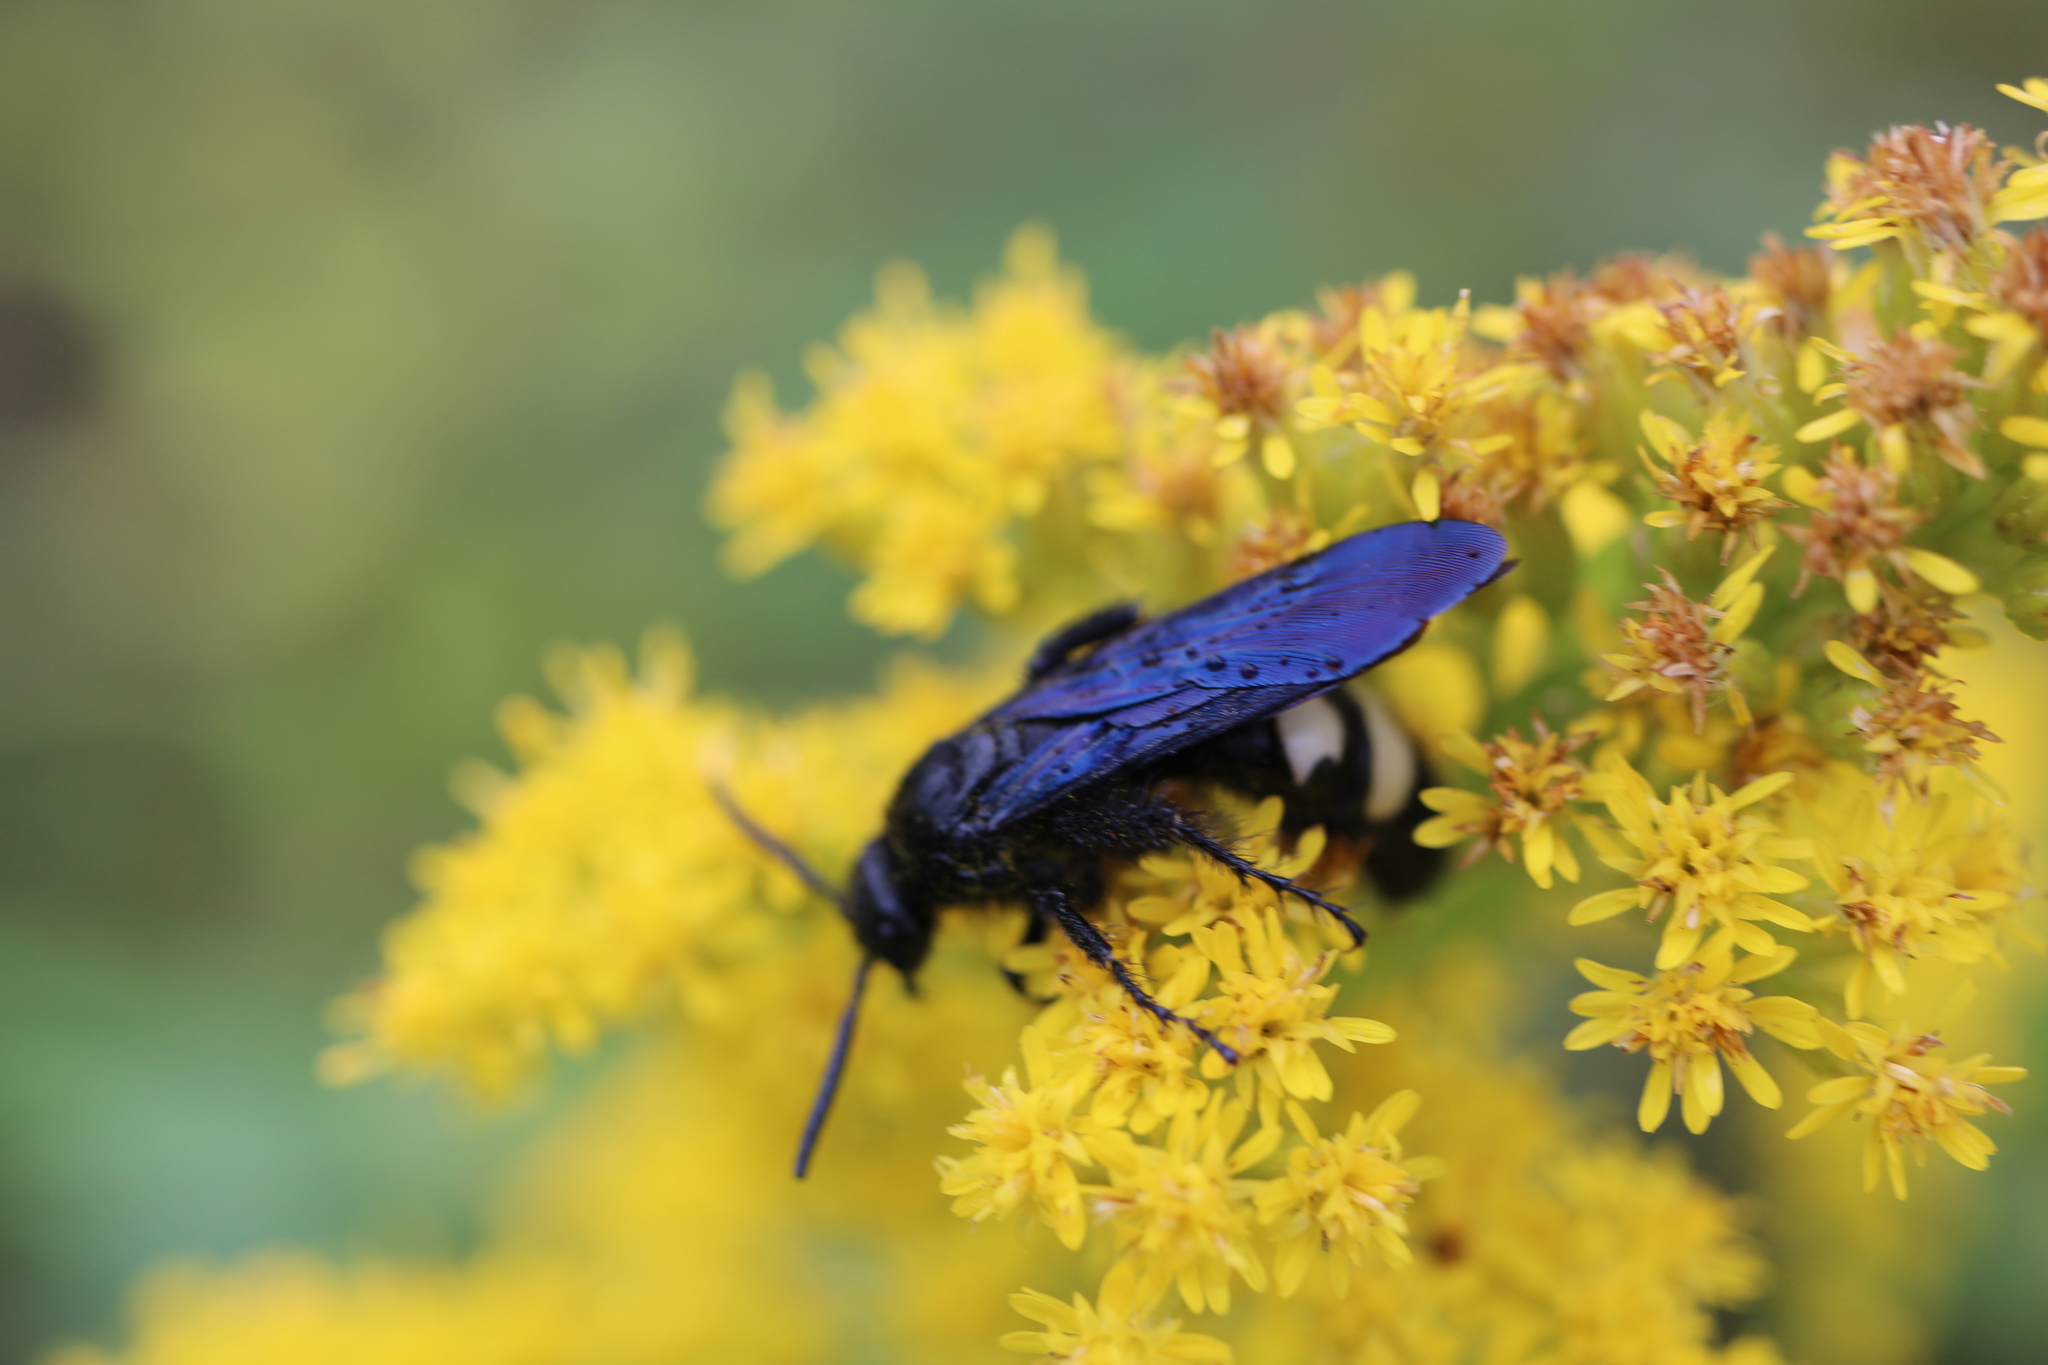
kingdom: Animalia
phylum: Arthropoda
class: Insecta
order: Hymenoptera
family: Scoliidae
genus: Scolia
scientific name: Scolia bicincta
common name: Double-banded scoliid wasp
